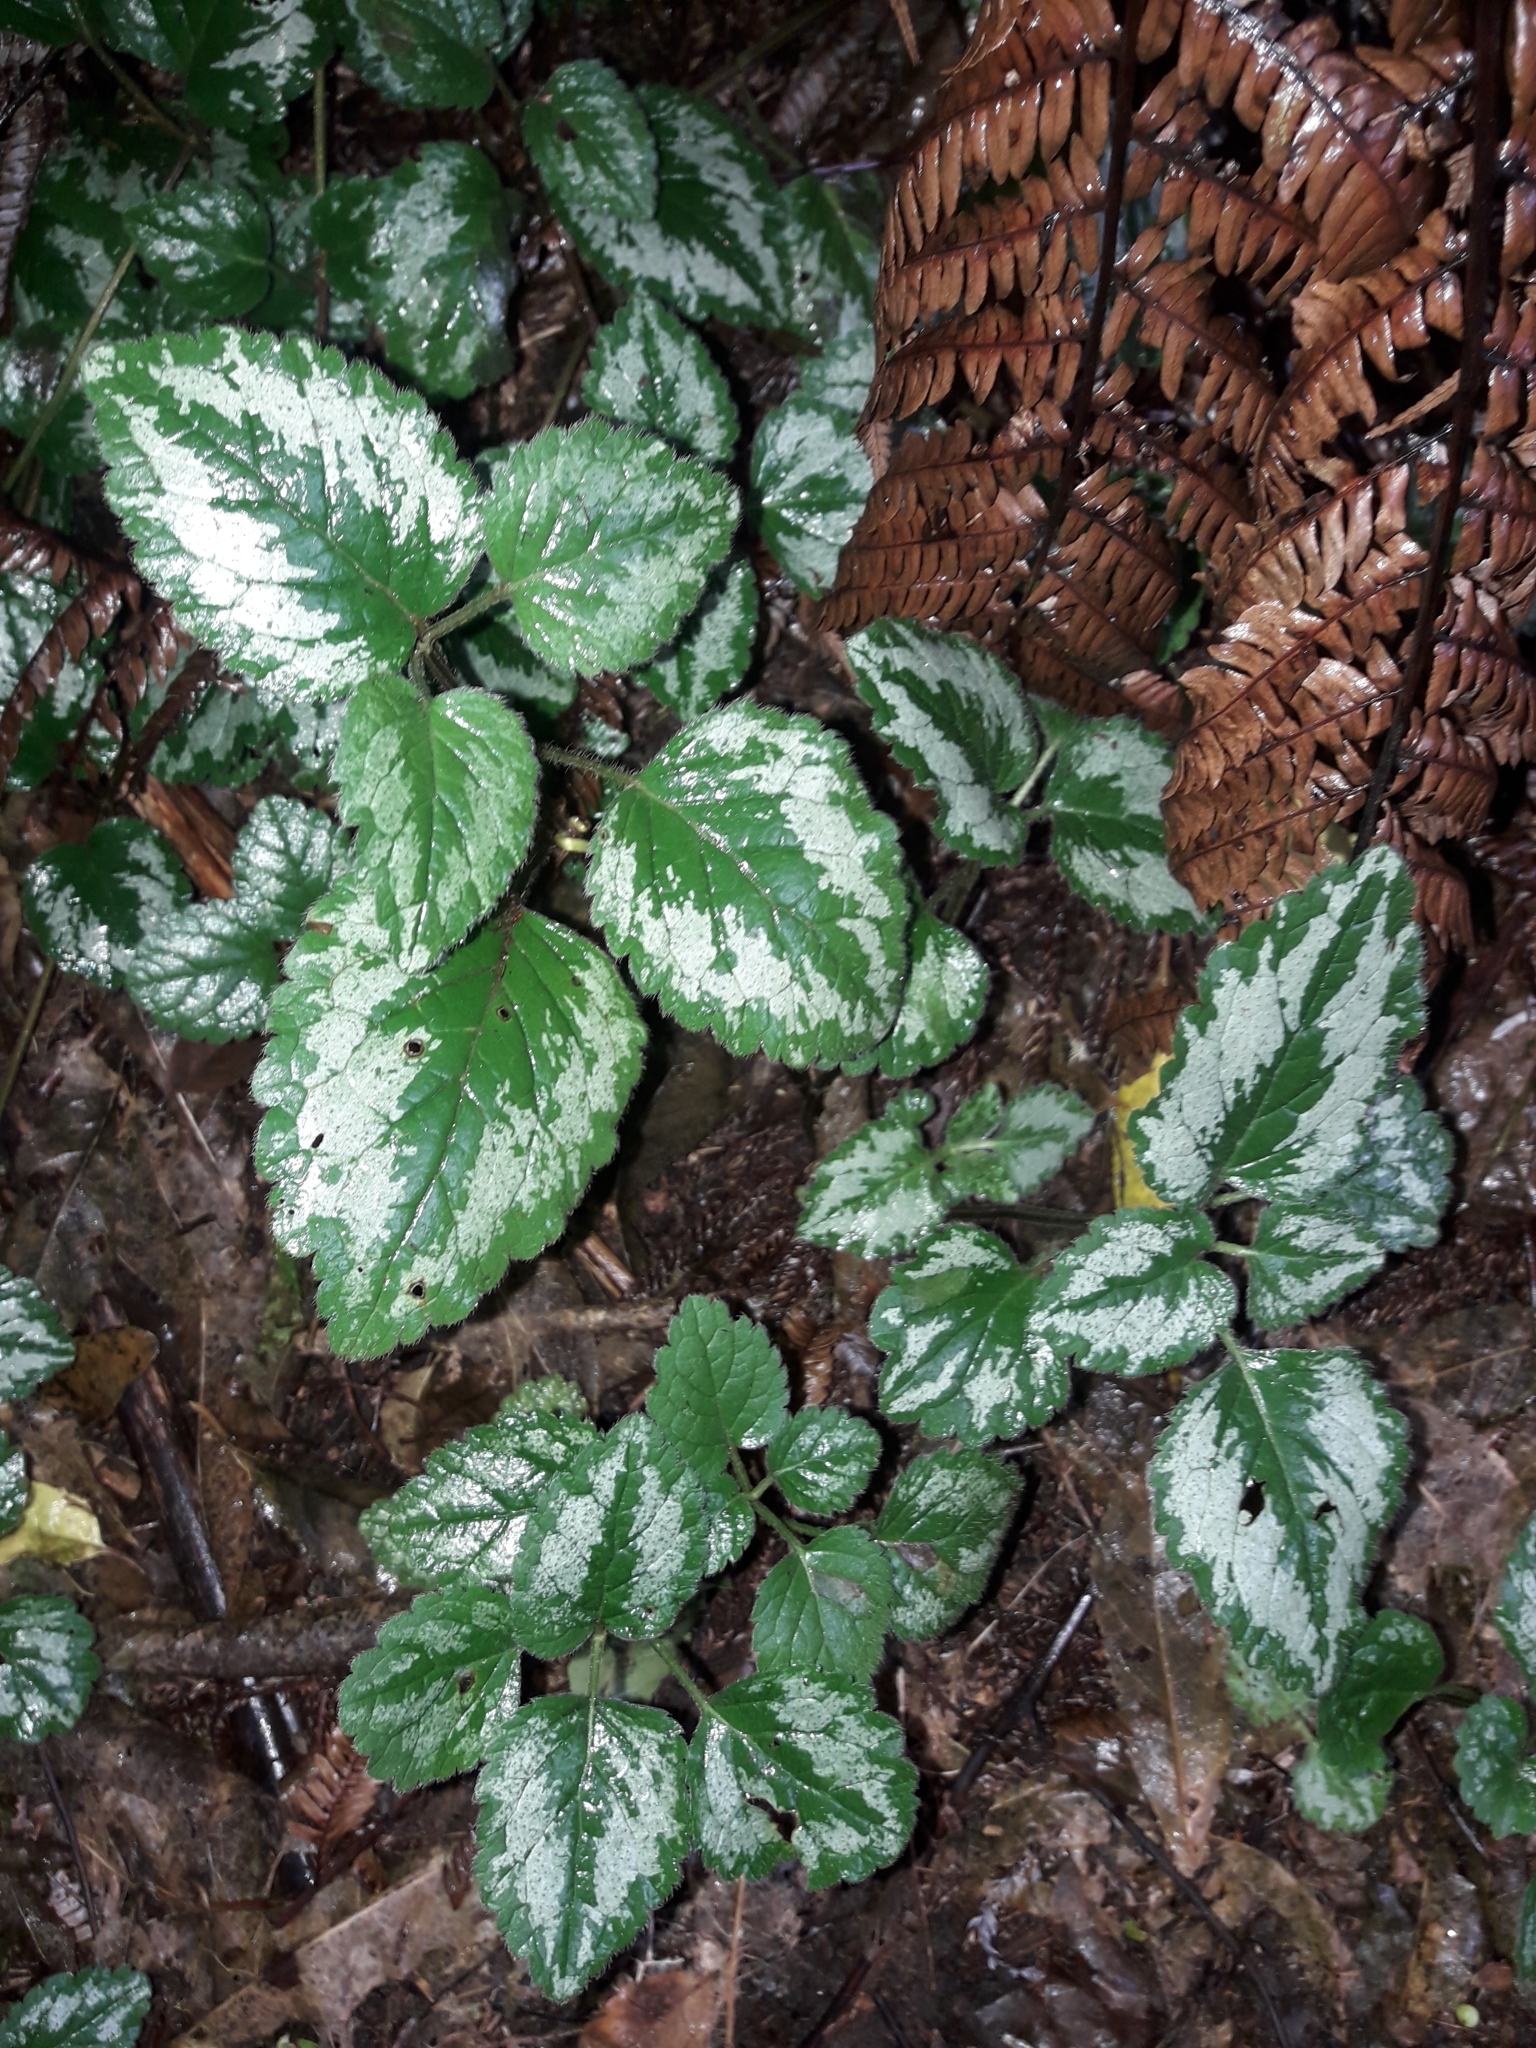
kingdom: Plantae
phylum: Tracheophyta
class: Magnoliopsida
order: Lamiales
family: Lamiaceae
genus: Lamium
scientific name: Lamium galeobdolon
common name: Yellow archangel
